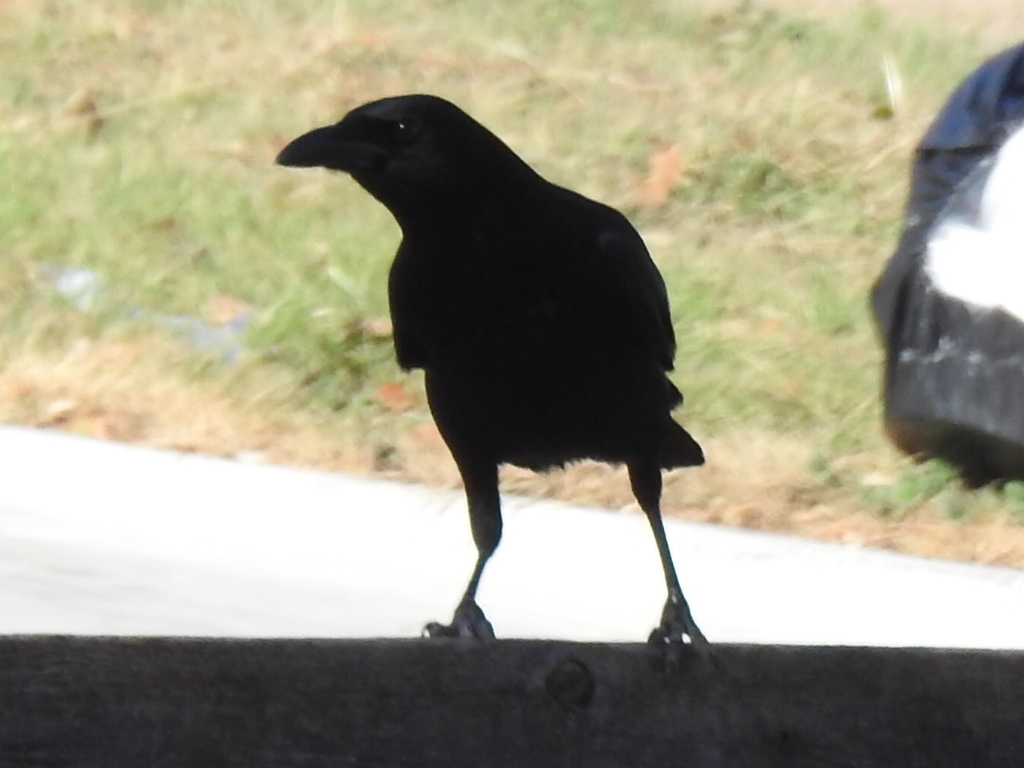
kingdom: Animalia
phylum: Chordata
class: Aves
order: Passeriformes
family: Corvidae
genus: Corvus
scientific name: Corvus brachyrhynchos
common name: American crow
